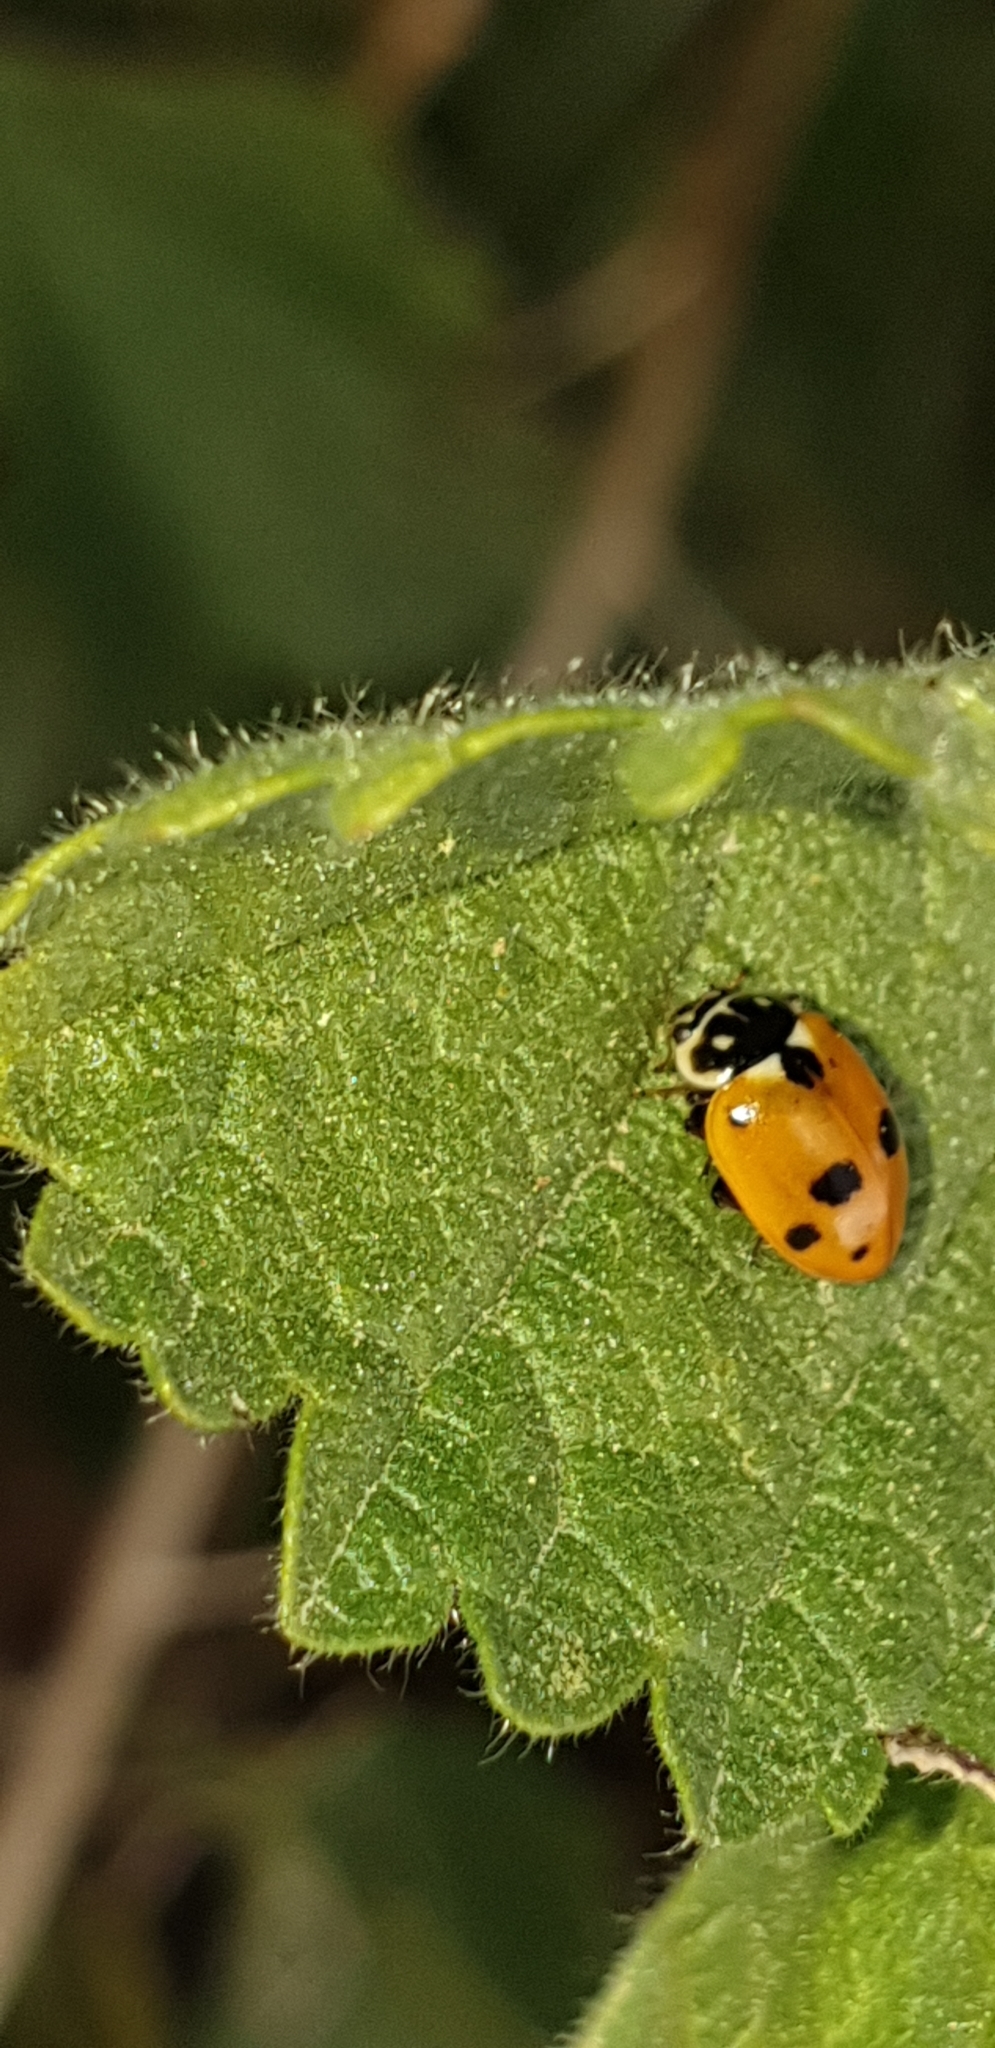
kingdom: Animalia
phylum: Arthropoda
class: Insecta
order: Coleoptera
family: Coccinellidae
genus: Hippodamia
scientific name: Hippodamia variegata
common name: Ladybird beetle
